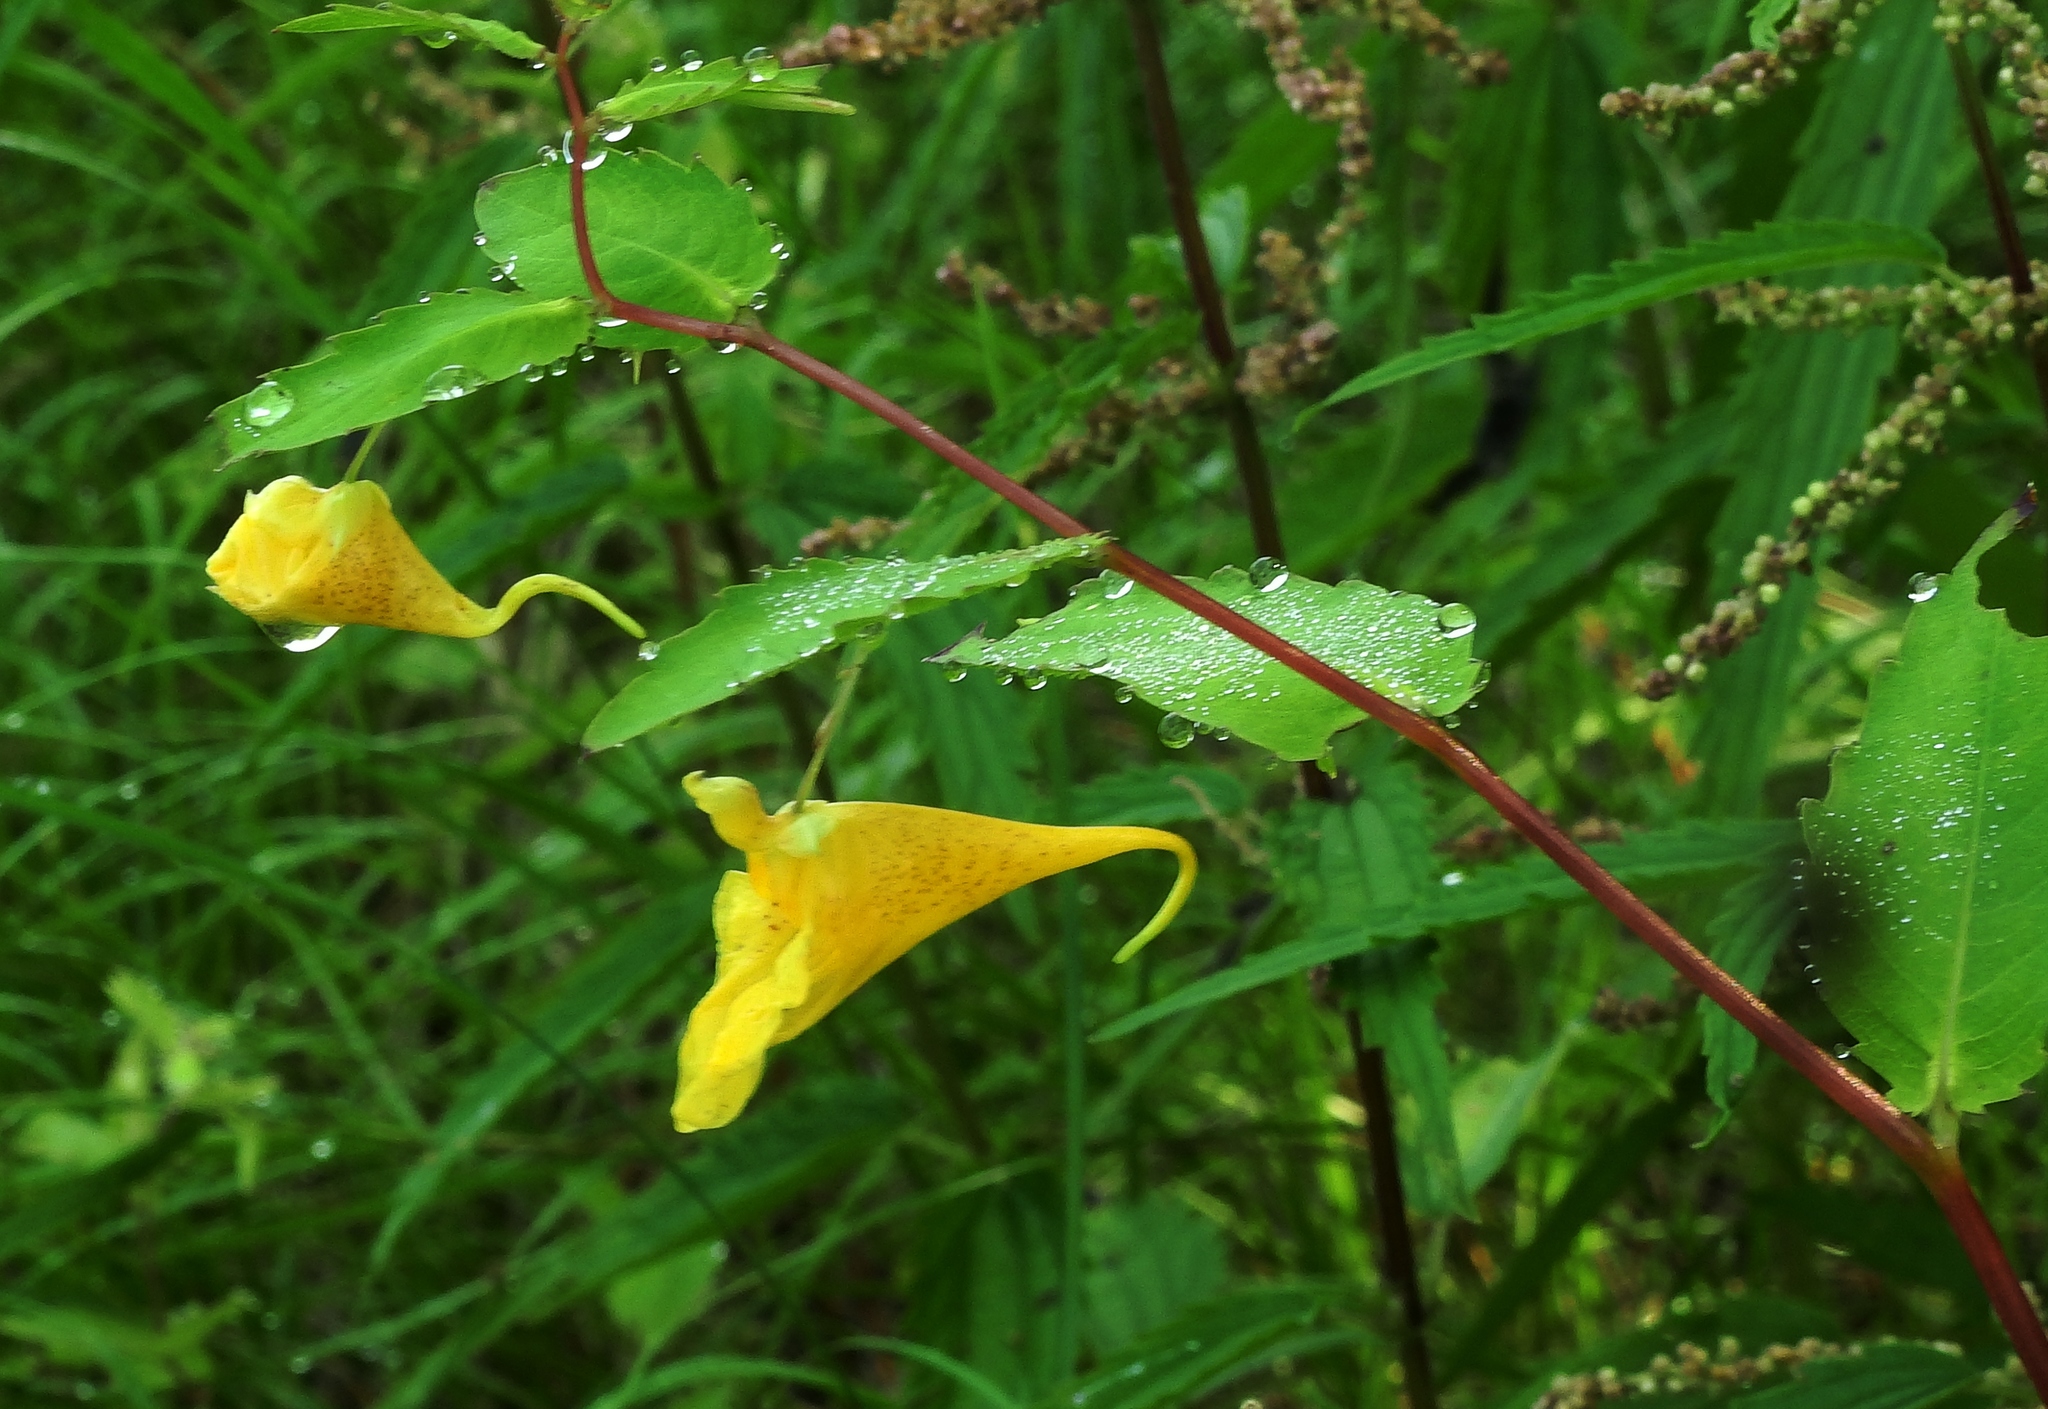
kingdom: Plantae
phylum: Tracheophyta
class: Magnoliopsida
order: Ericales
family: Balsaminaceae
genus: Impatiens
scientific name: Impatiens noli-tangere
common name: Touch-me-not balsam
